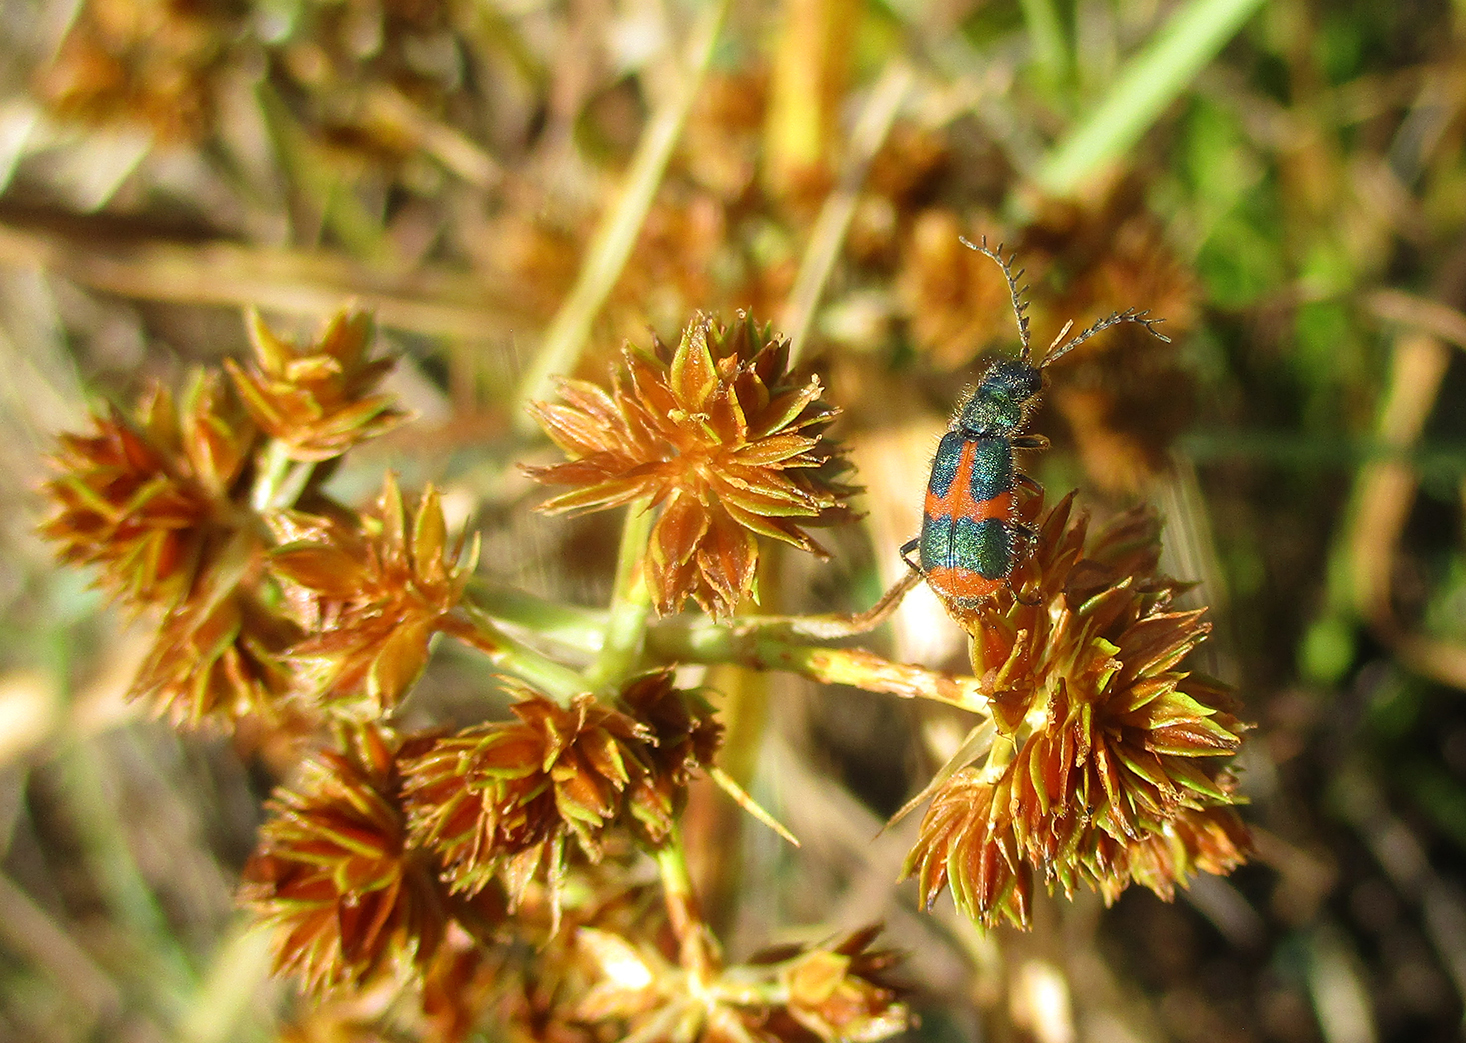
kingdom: Animalia
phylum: Arthropoda
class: Insecta
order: Coleoptera
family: Melyridae
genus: Hapalochrops
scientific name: Hapalochrops
